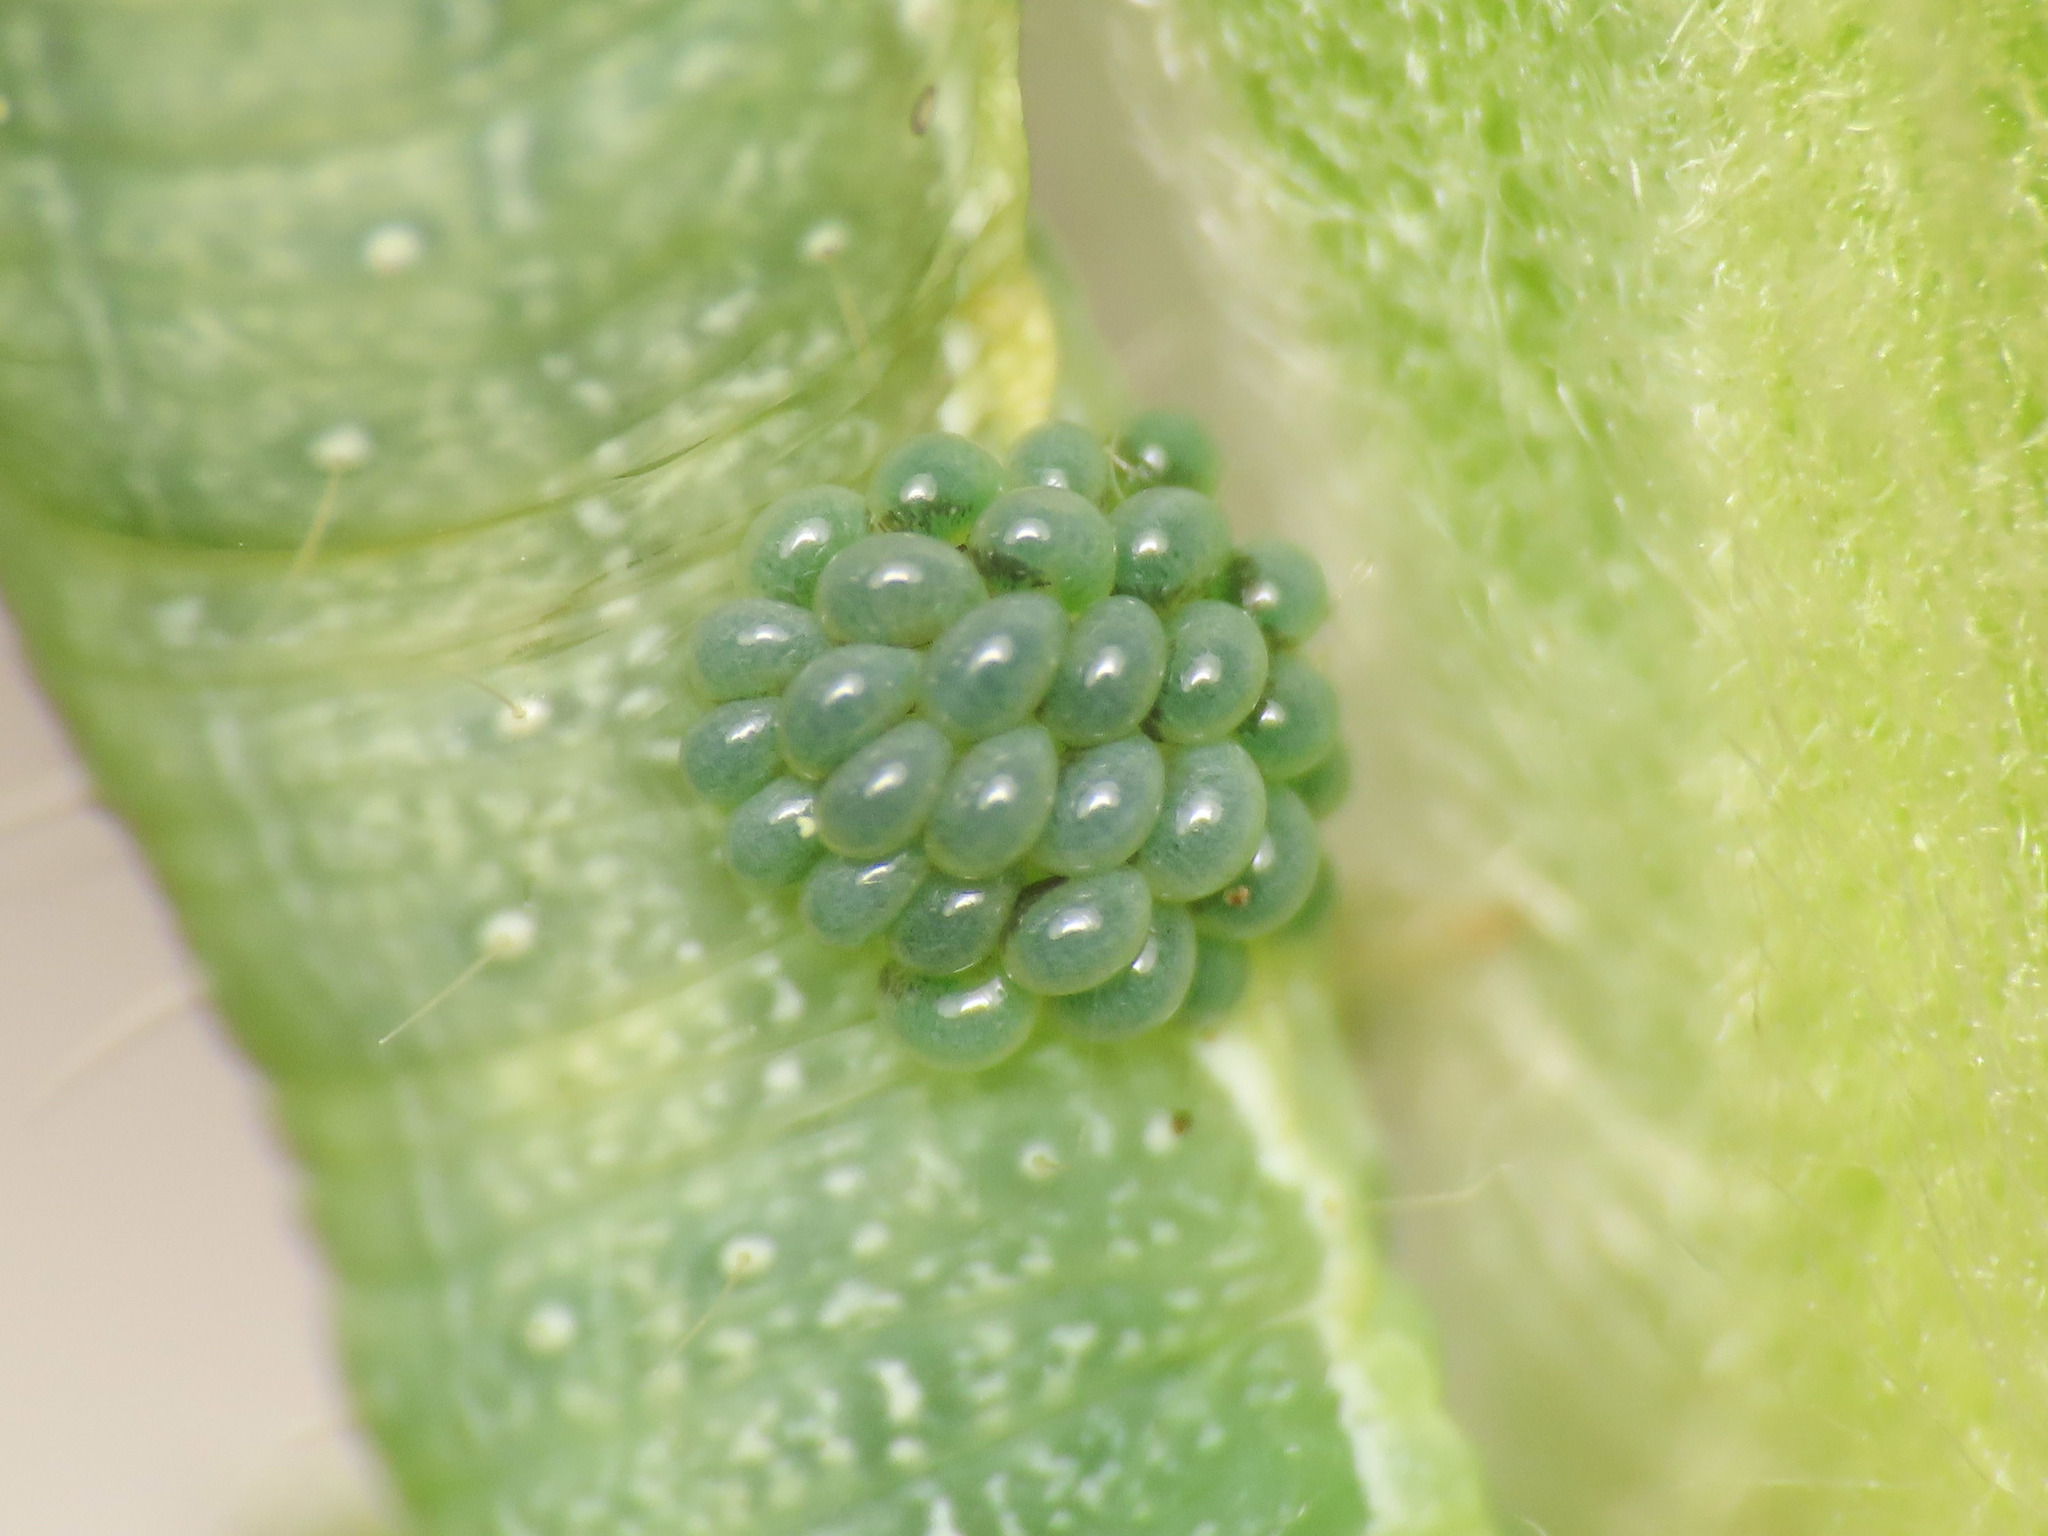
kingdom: Animalia
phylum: Arthropoda
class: Insecta
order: Hymenoptera
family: Eulophidae
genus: Euplectrus
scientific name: Euplectrus
